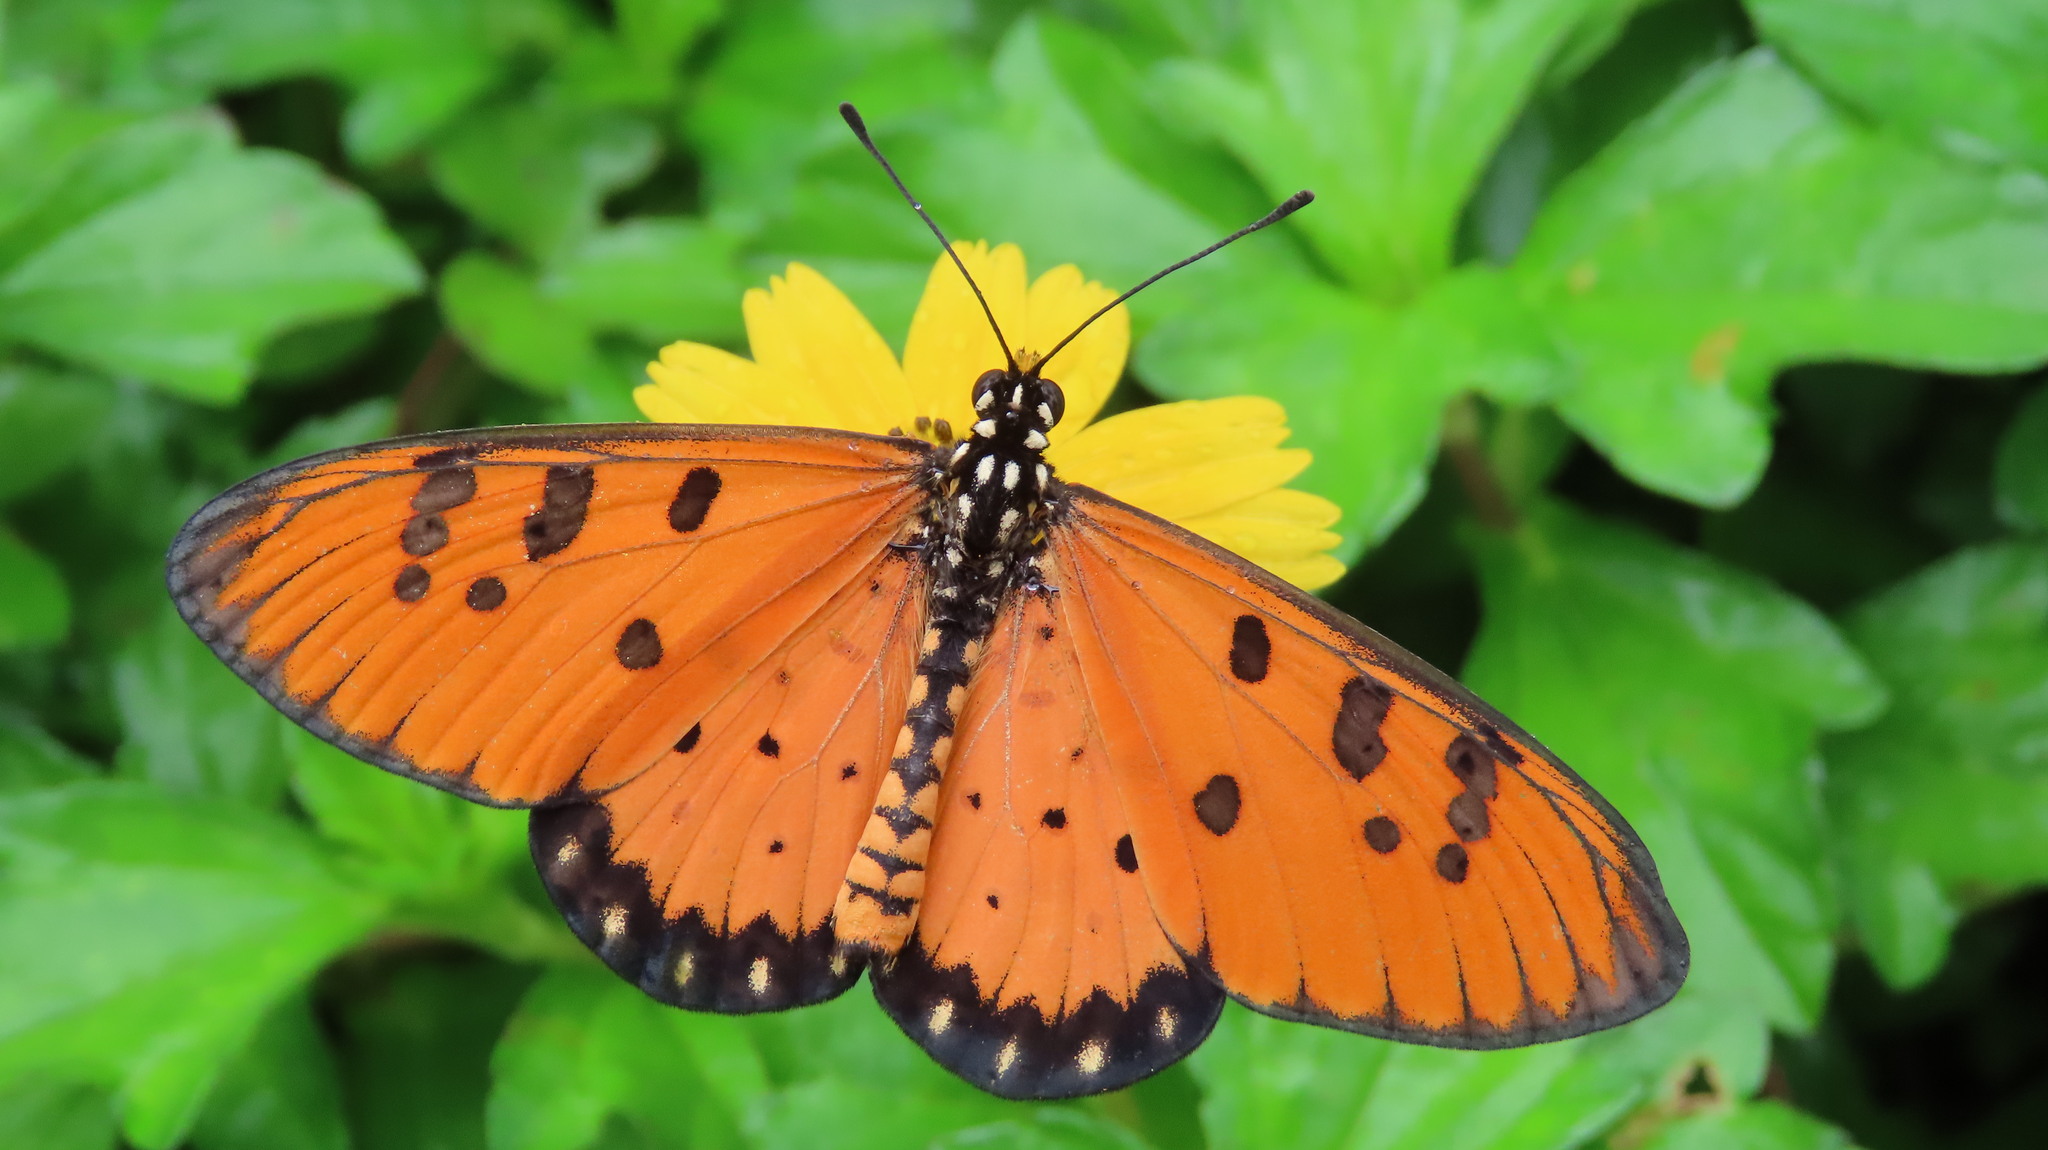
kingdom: Animalia
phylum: Arthropoda
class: Insecta
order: Lepidoptera
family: Nymphalidae
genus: Acraea
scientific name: Acraea terpsicore
